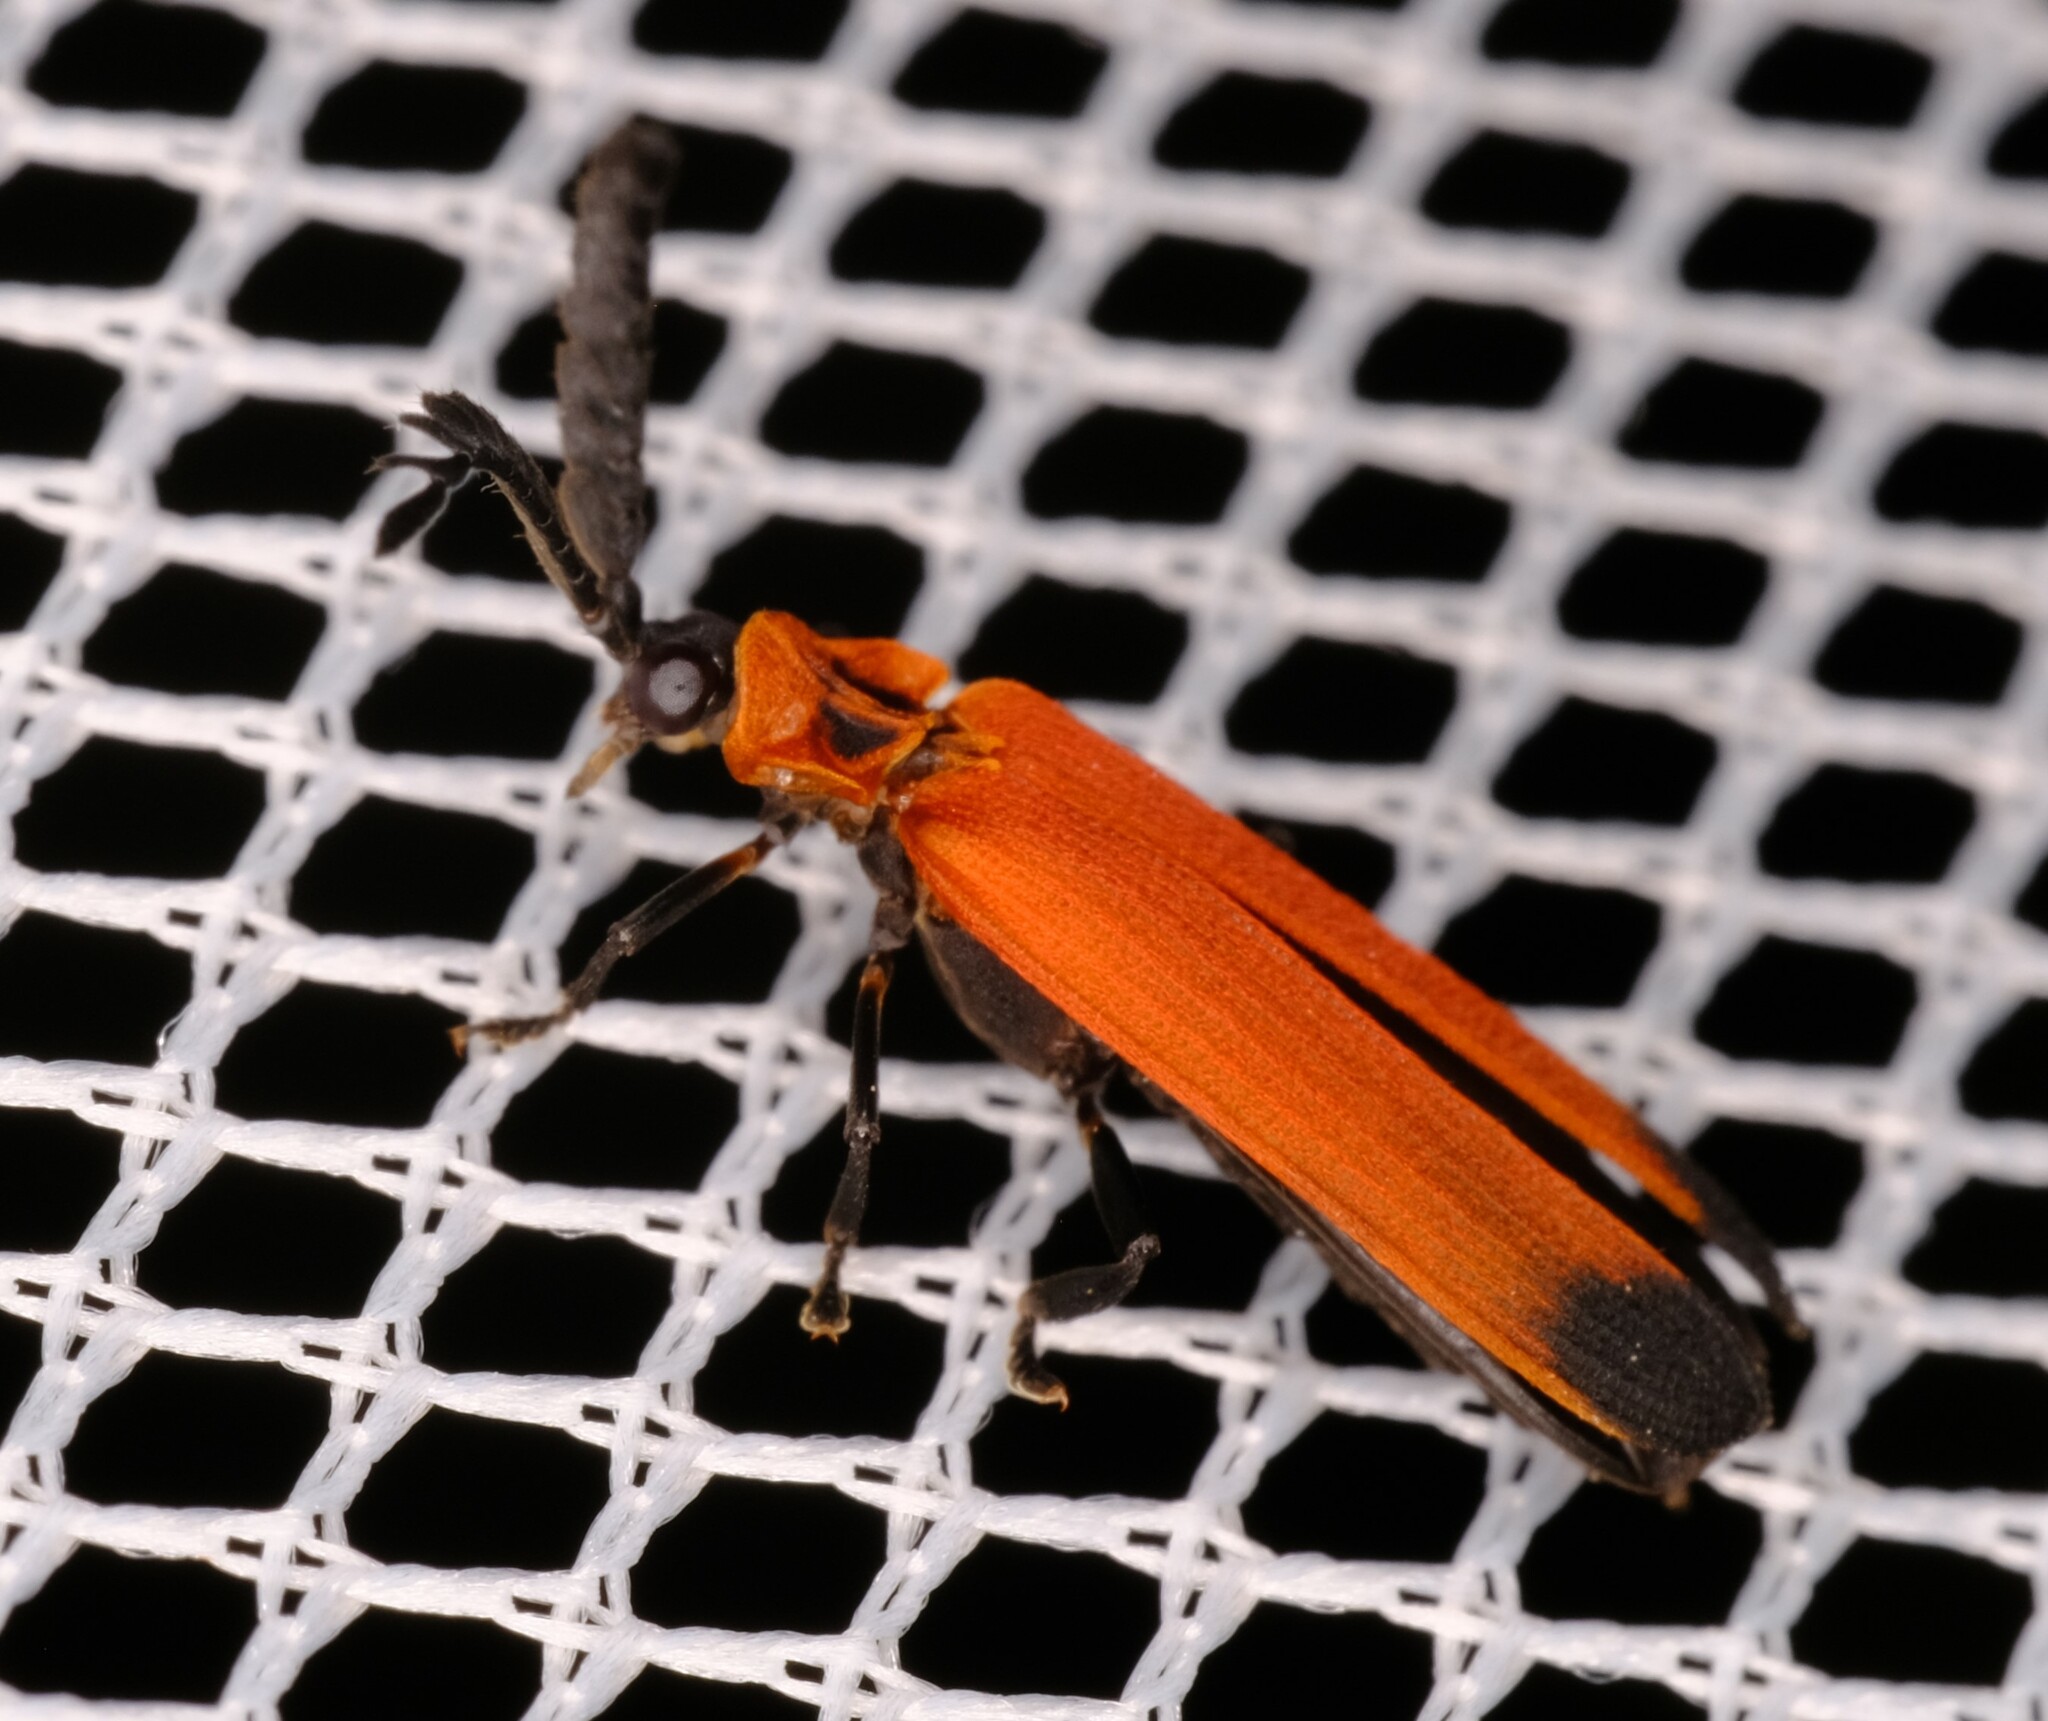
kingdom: Animalia
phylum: Arthropoda
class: Insecta
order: Coleoptera
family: Lycidae
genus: Cladophorus
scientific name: Cladophorus
